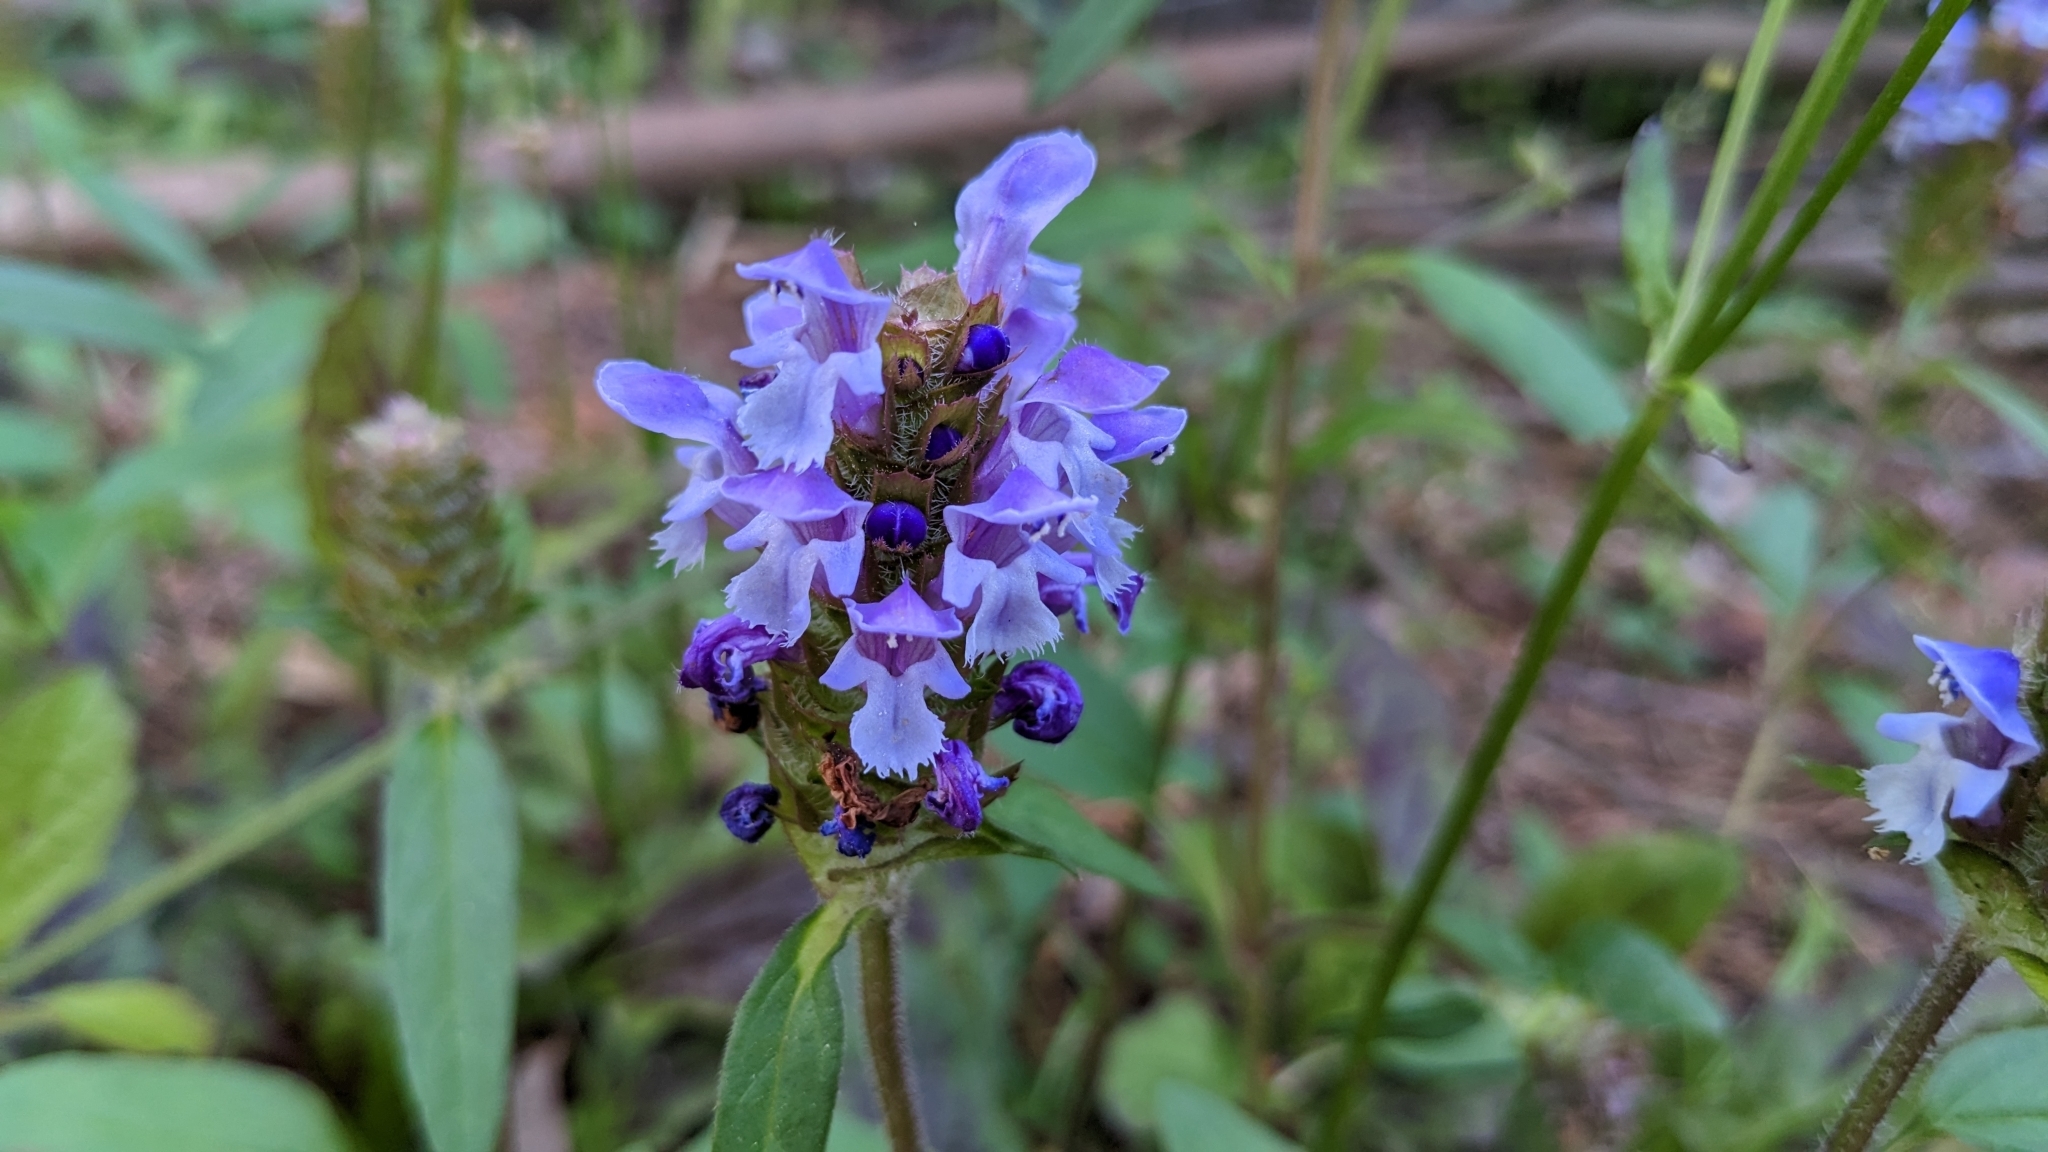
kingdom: Plantae
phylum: Tracheophyta
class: Magnoliopsida
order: Lamiales
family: Lamiaceae
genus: Prunella
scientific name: Prunella vulgaris
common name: Heal-all
